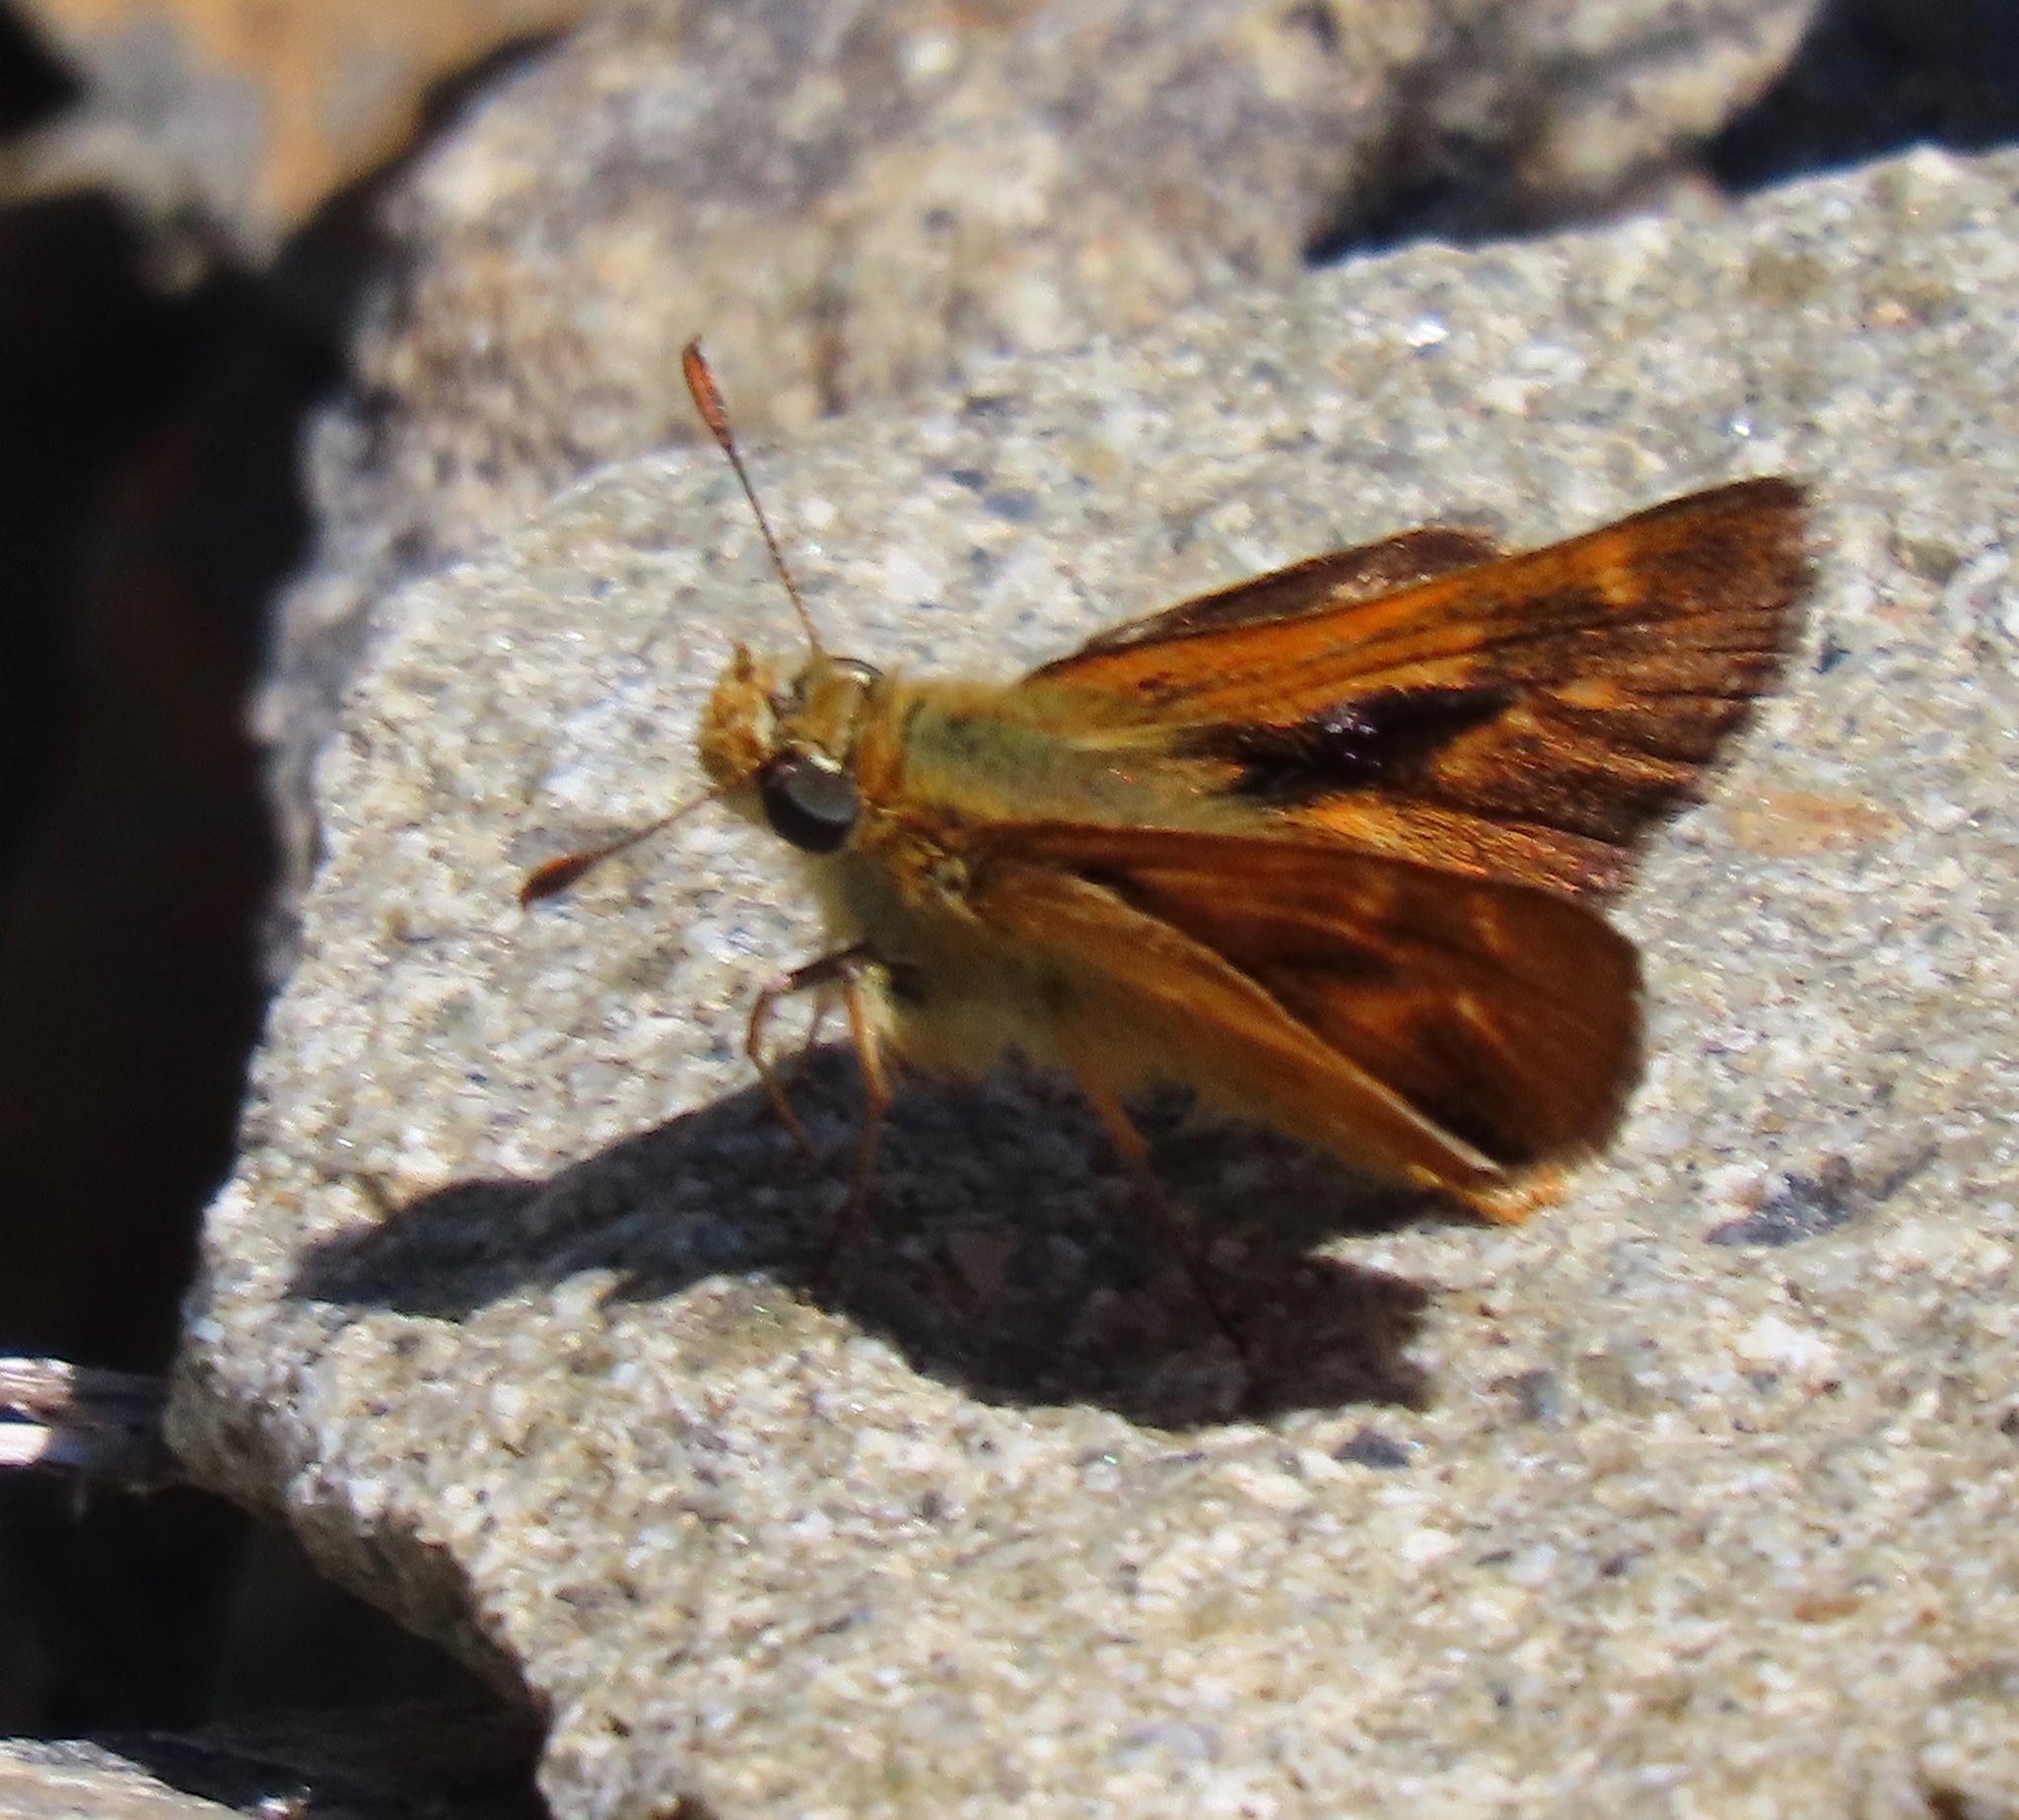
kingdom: Animalia
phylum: Arthropoda
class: Insecta
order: Lepidoptera
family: Hesperiidae
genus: Ochlodes
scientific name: Ochlodes agricola
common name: Rural skipper
